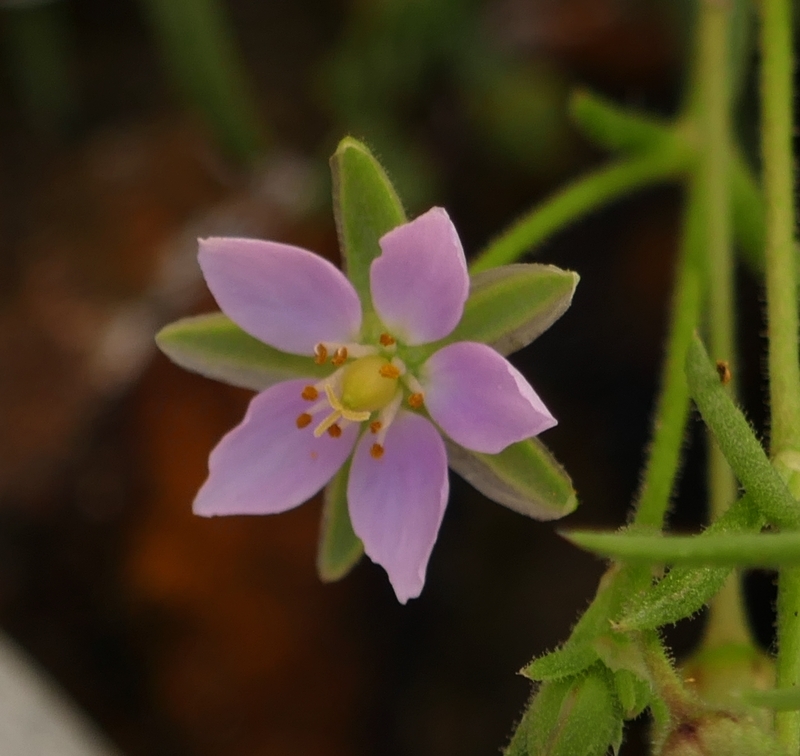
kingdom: Plantae
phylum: Tracheophyta
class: Magnoliopsida
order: Caryophyllales
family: Caryophyllaceae
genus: Spergularia
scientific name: Spergularia marina
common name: Lesser sea-spurrey
